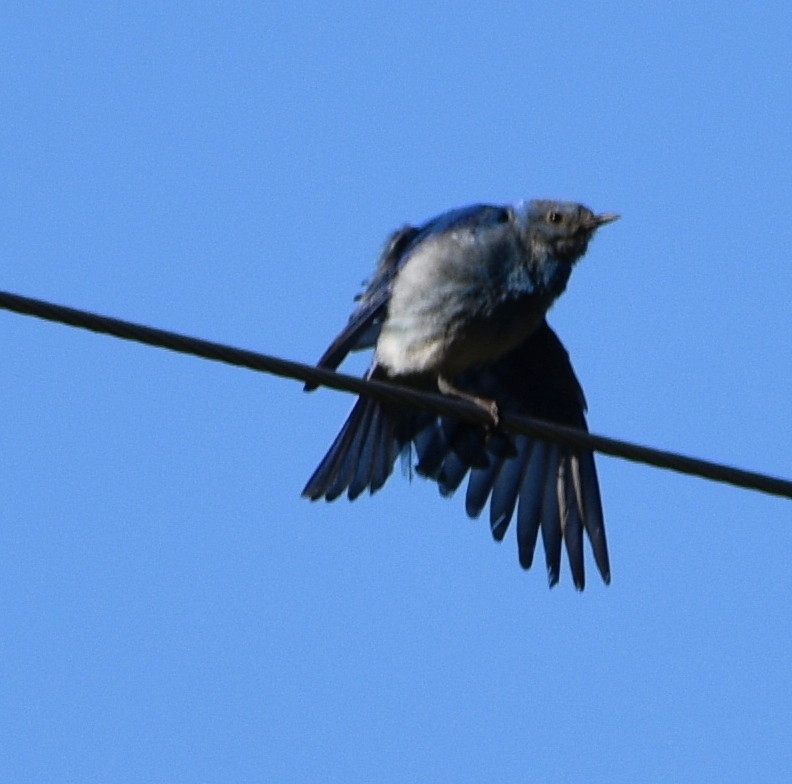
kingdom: Animalia
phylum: Chordata
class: Aves
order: Passeriformes
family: Turdidae
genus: Sialia
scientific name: Sialia currucoides
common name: Mountain bluebird
